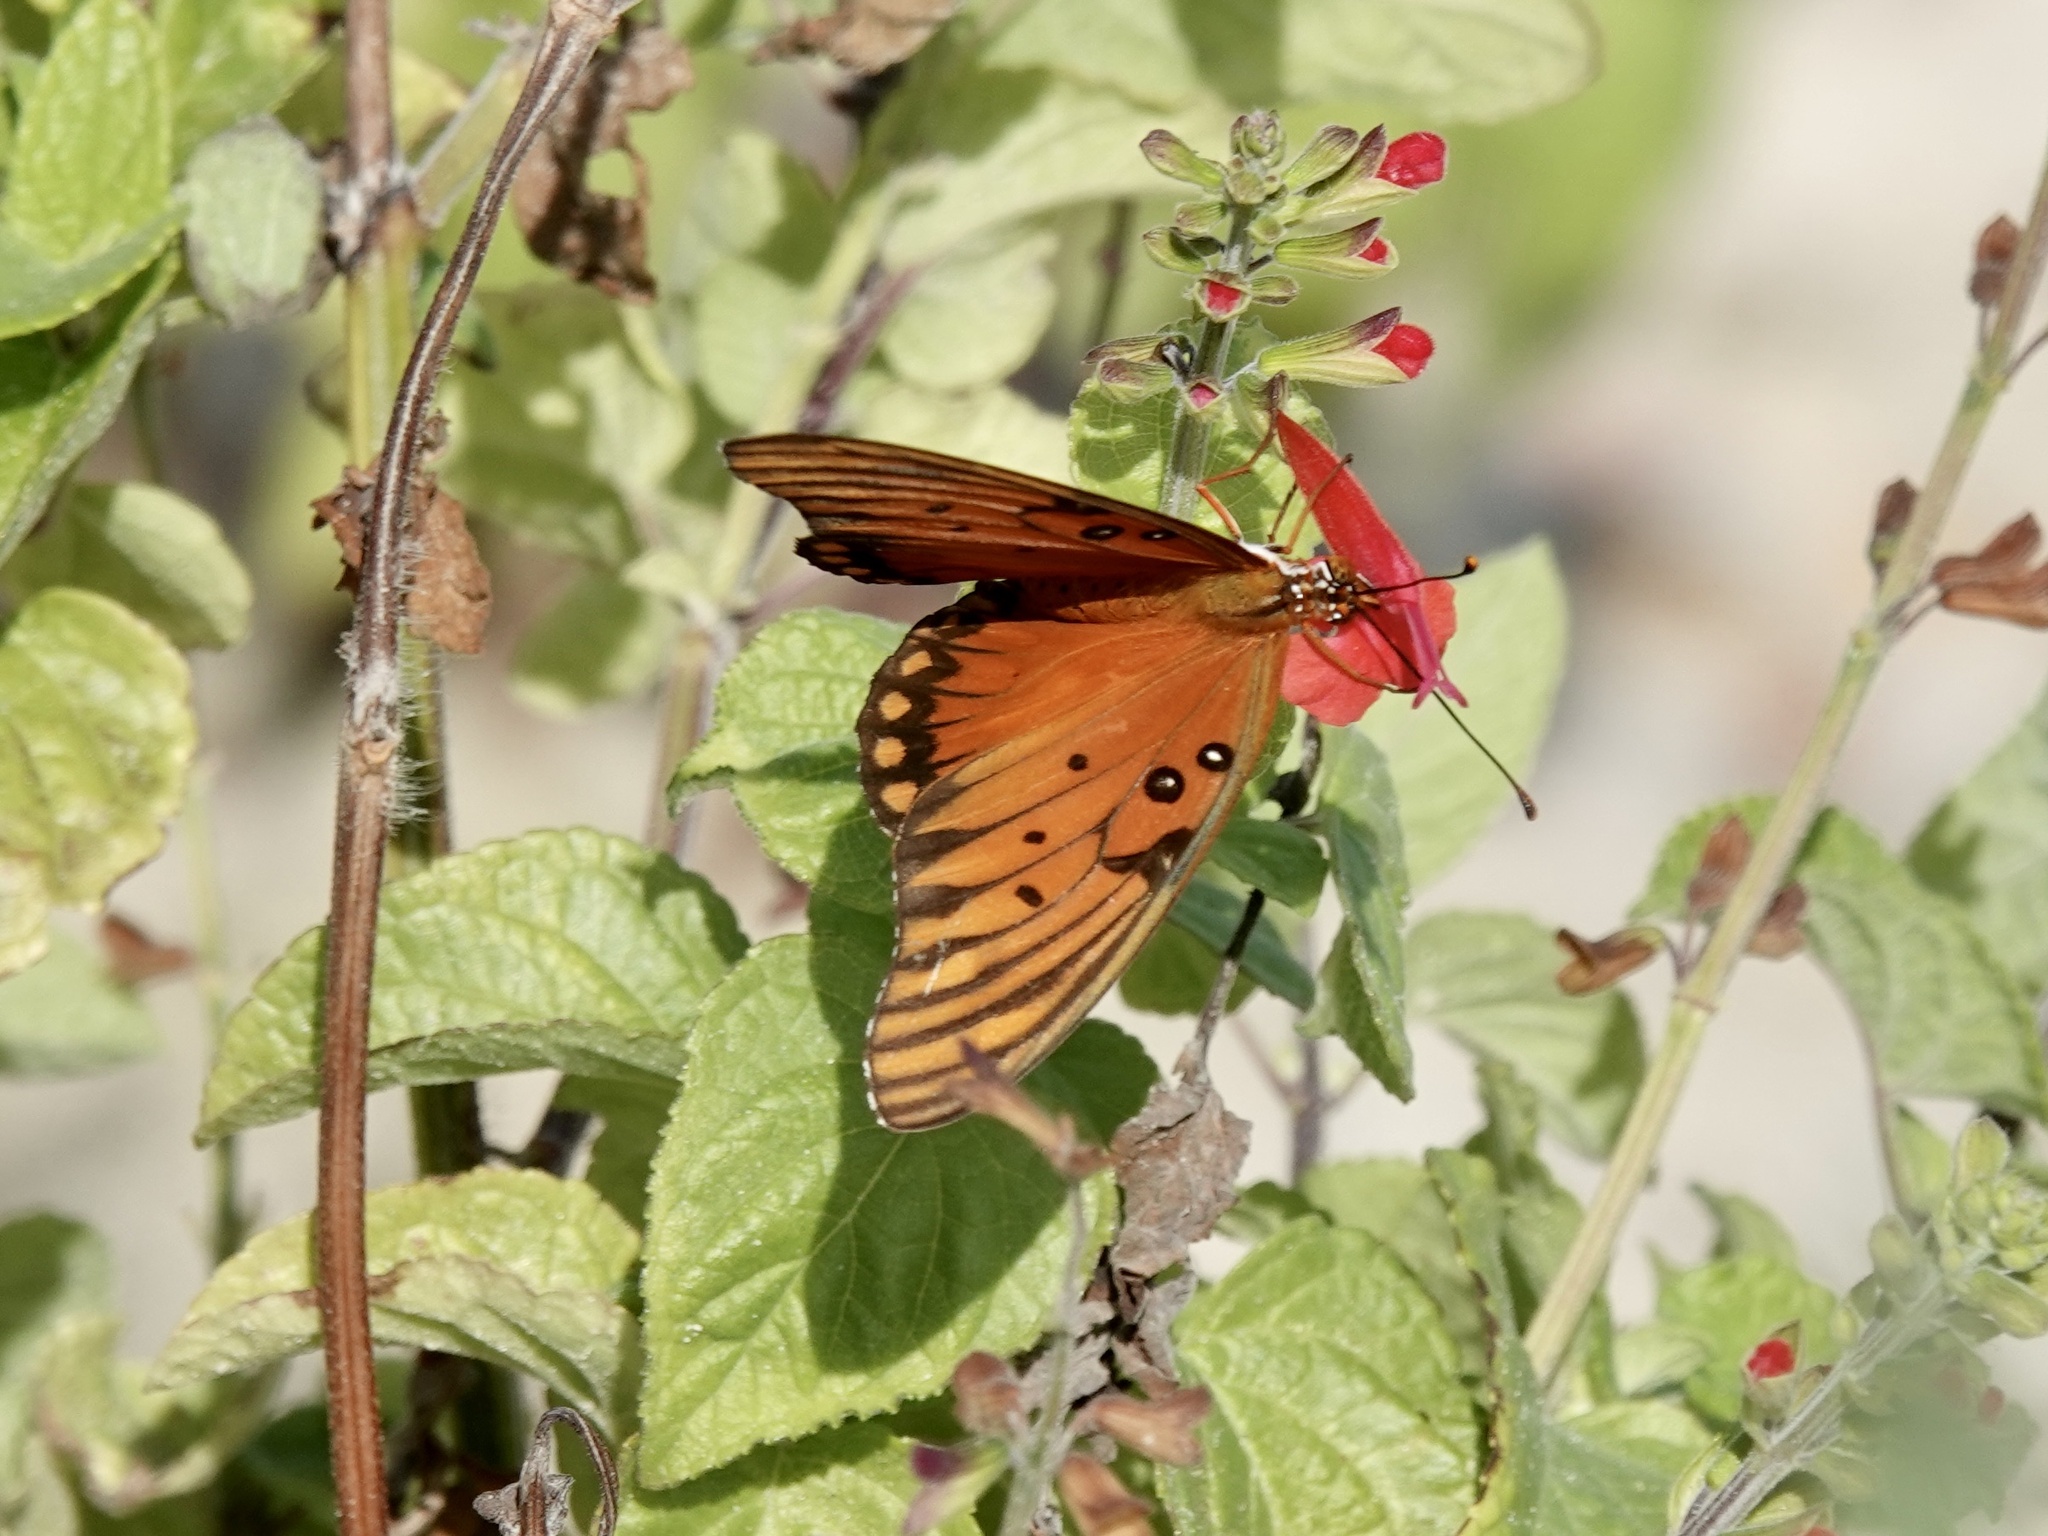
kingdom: Animalia
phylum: Arthropoda
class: Insecta
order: Lepidoptera
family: Nymphalidae
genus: Dione
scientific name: Dione vanillae
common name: Gulf fritillary
